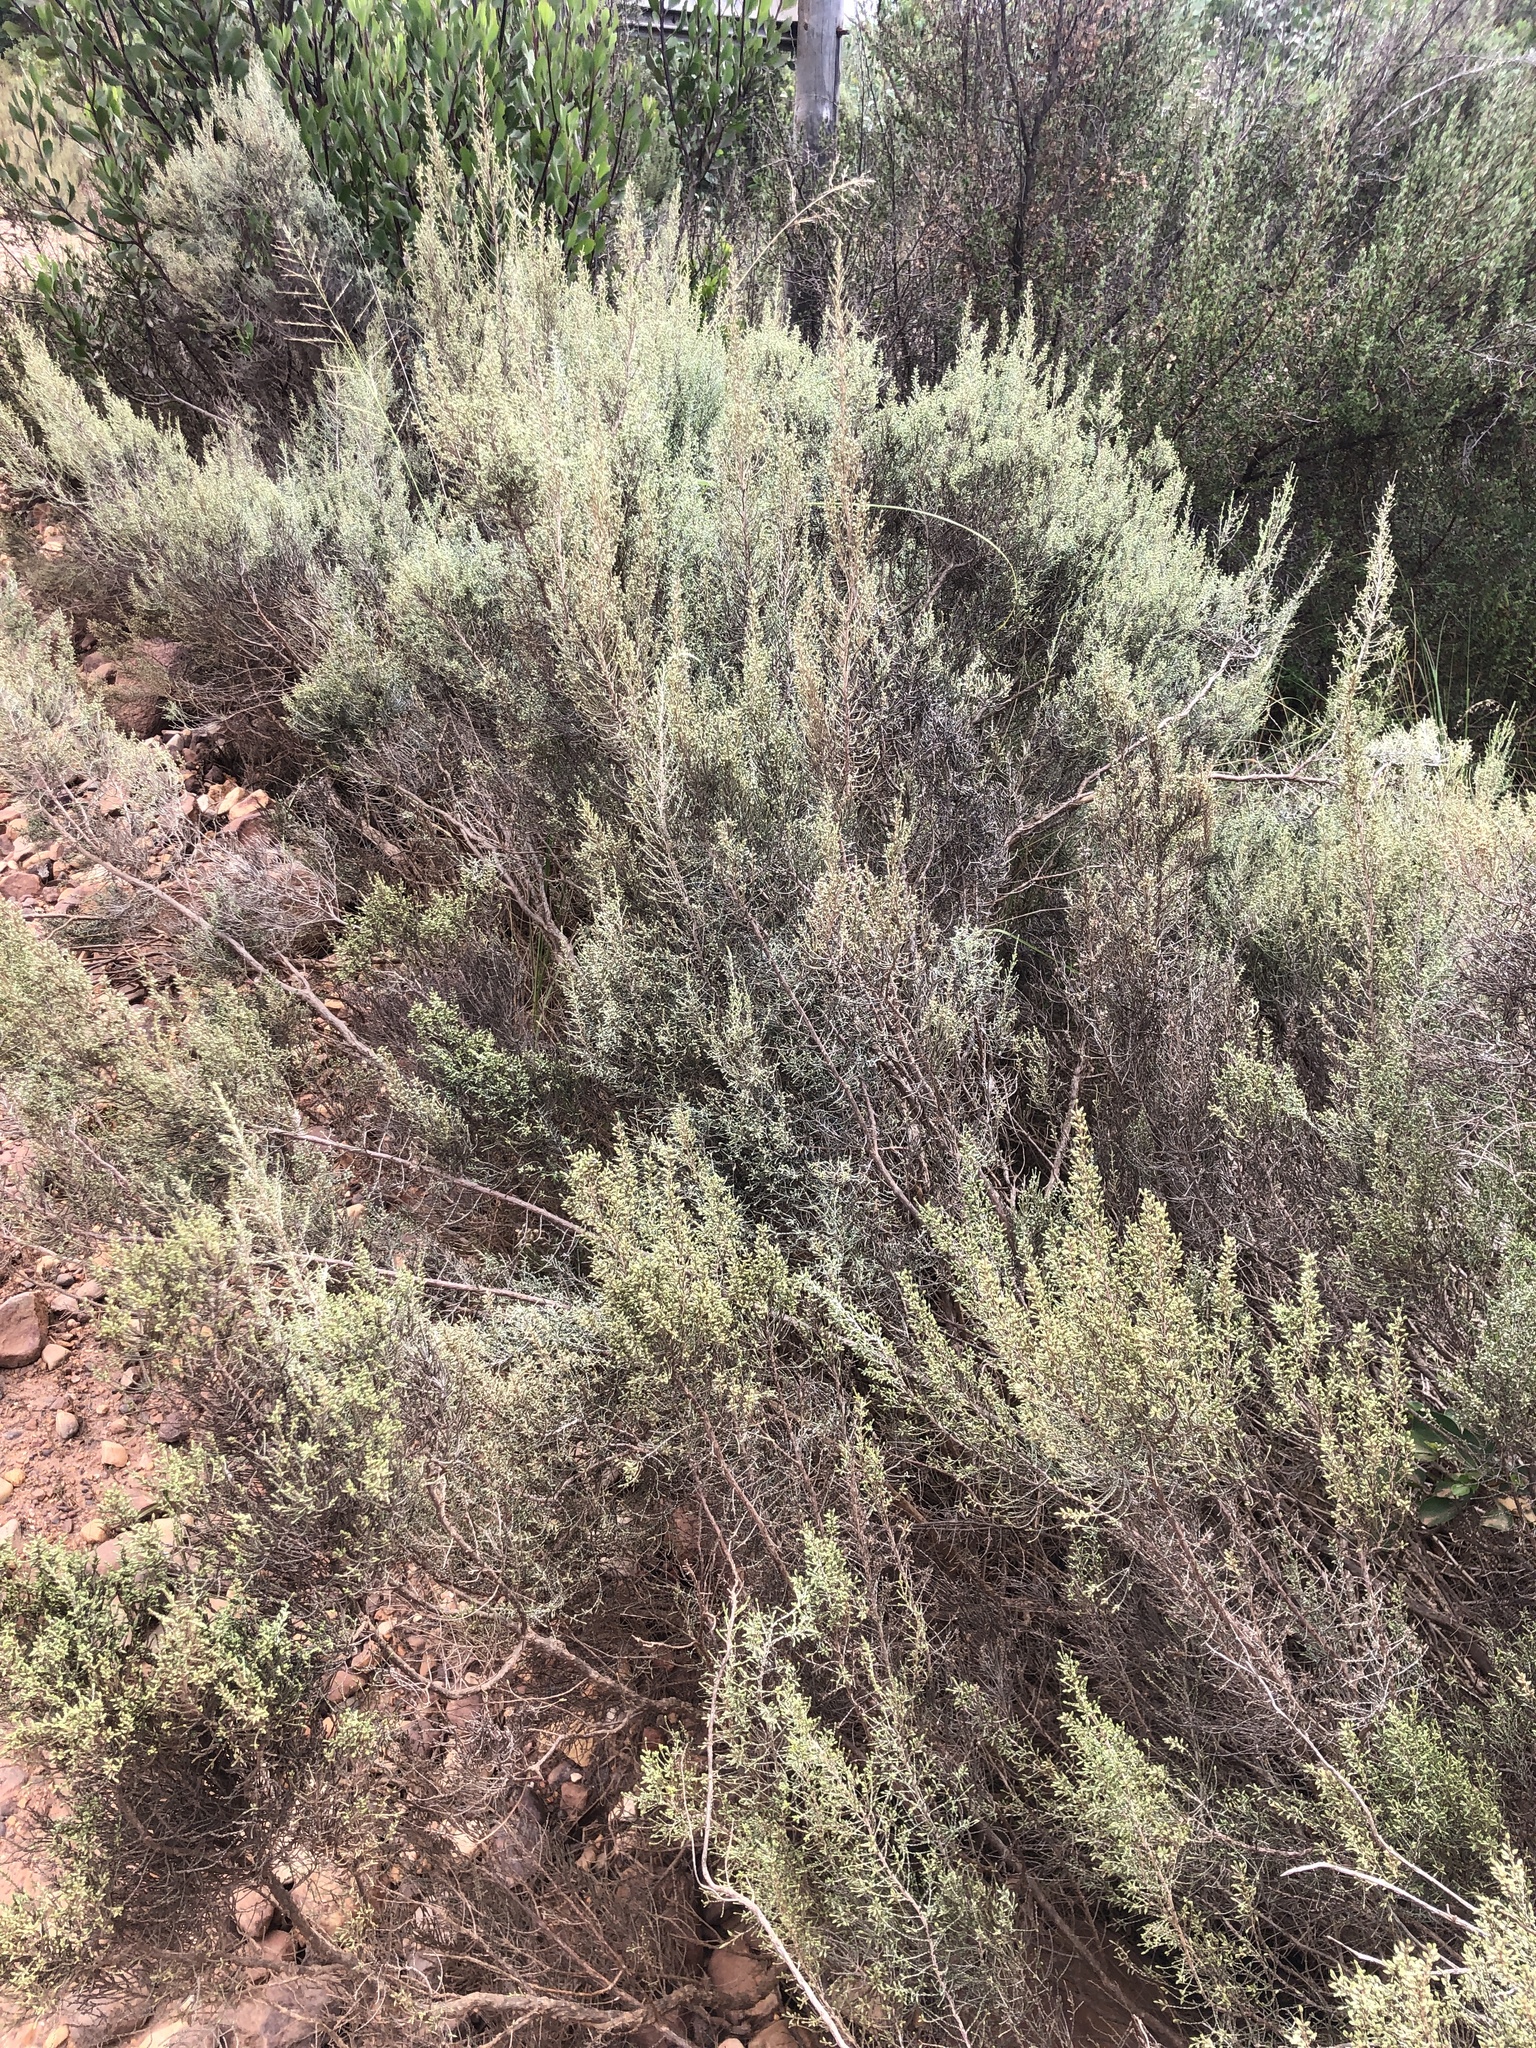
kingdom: Plantae
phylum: Tracheophyta
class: Magnoliopsida
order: Asterales
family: Asteraceae
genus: Dicerothamnus
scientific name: Dicerothamnus rhinocerotis
